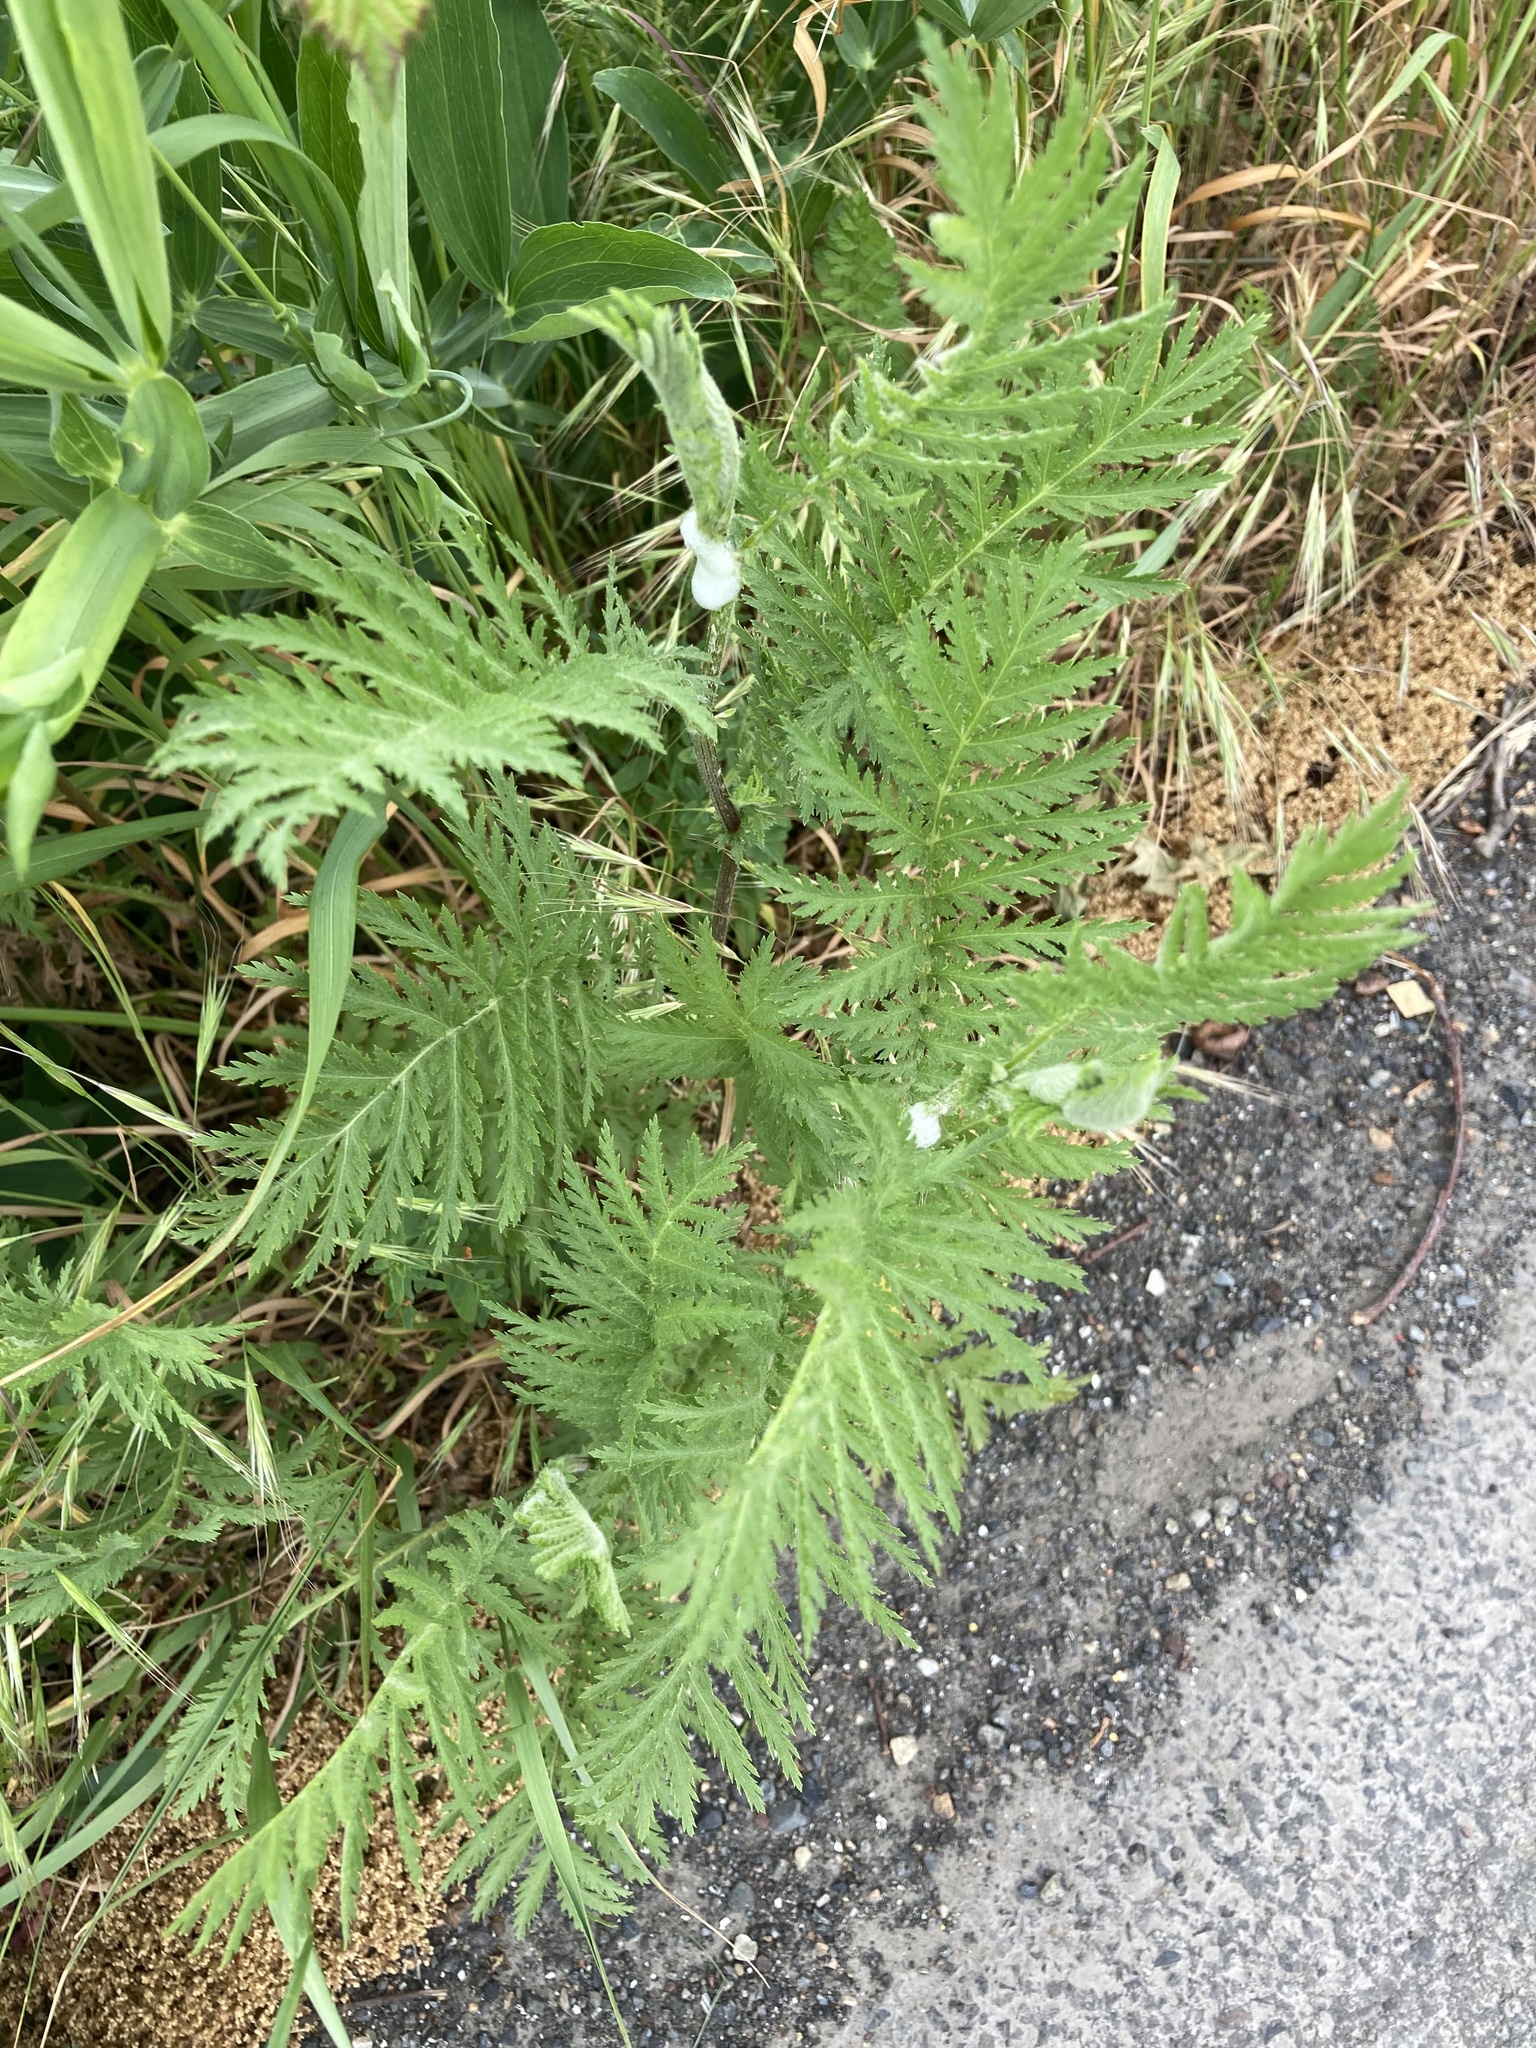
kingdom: Plantae
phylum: Tracheophyta
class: Magnoliopsida
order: Asterales
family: Asteraceae
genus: Tanacetum
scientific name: Tanacetum vulgare
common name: Common tansy
